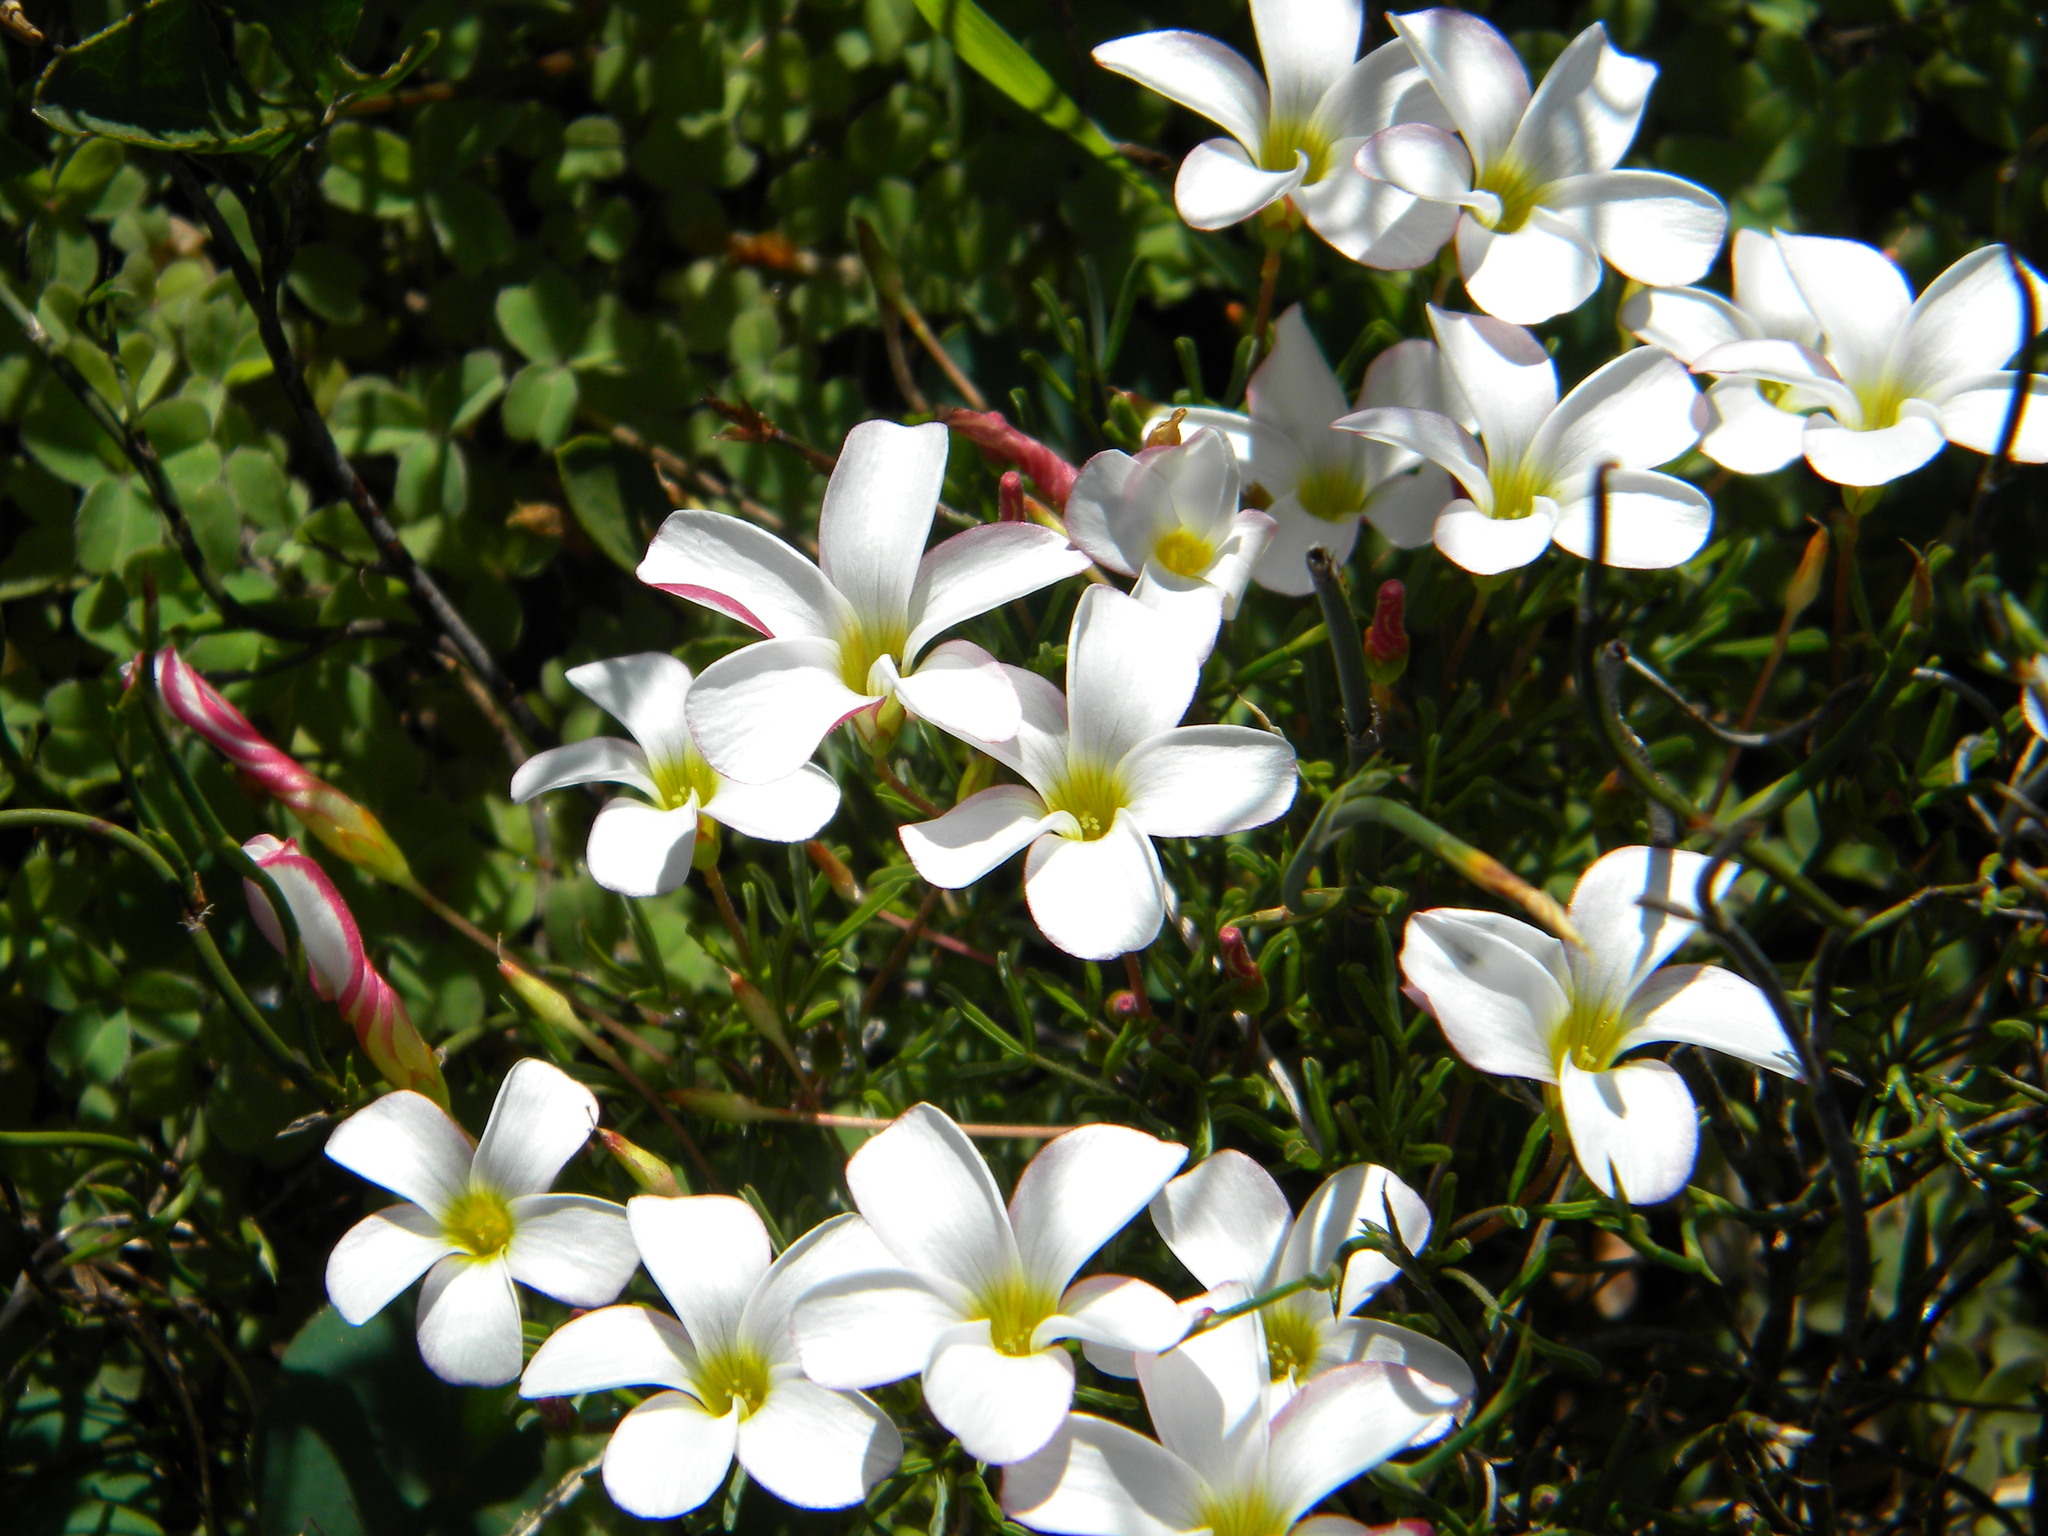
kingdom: Plantae
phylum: Tracheophyta
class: Magnoliopsida
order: Oxalidales
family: Oxalidaceae
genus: Oxalis
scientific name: Oxalis versicolor
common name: Peppermint rock oxalis
